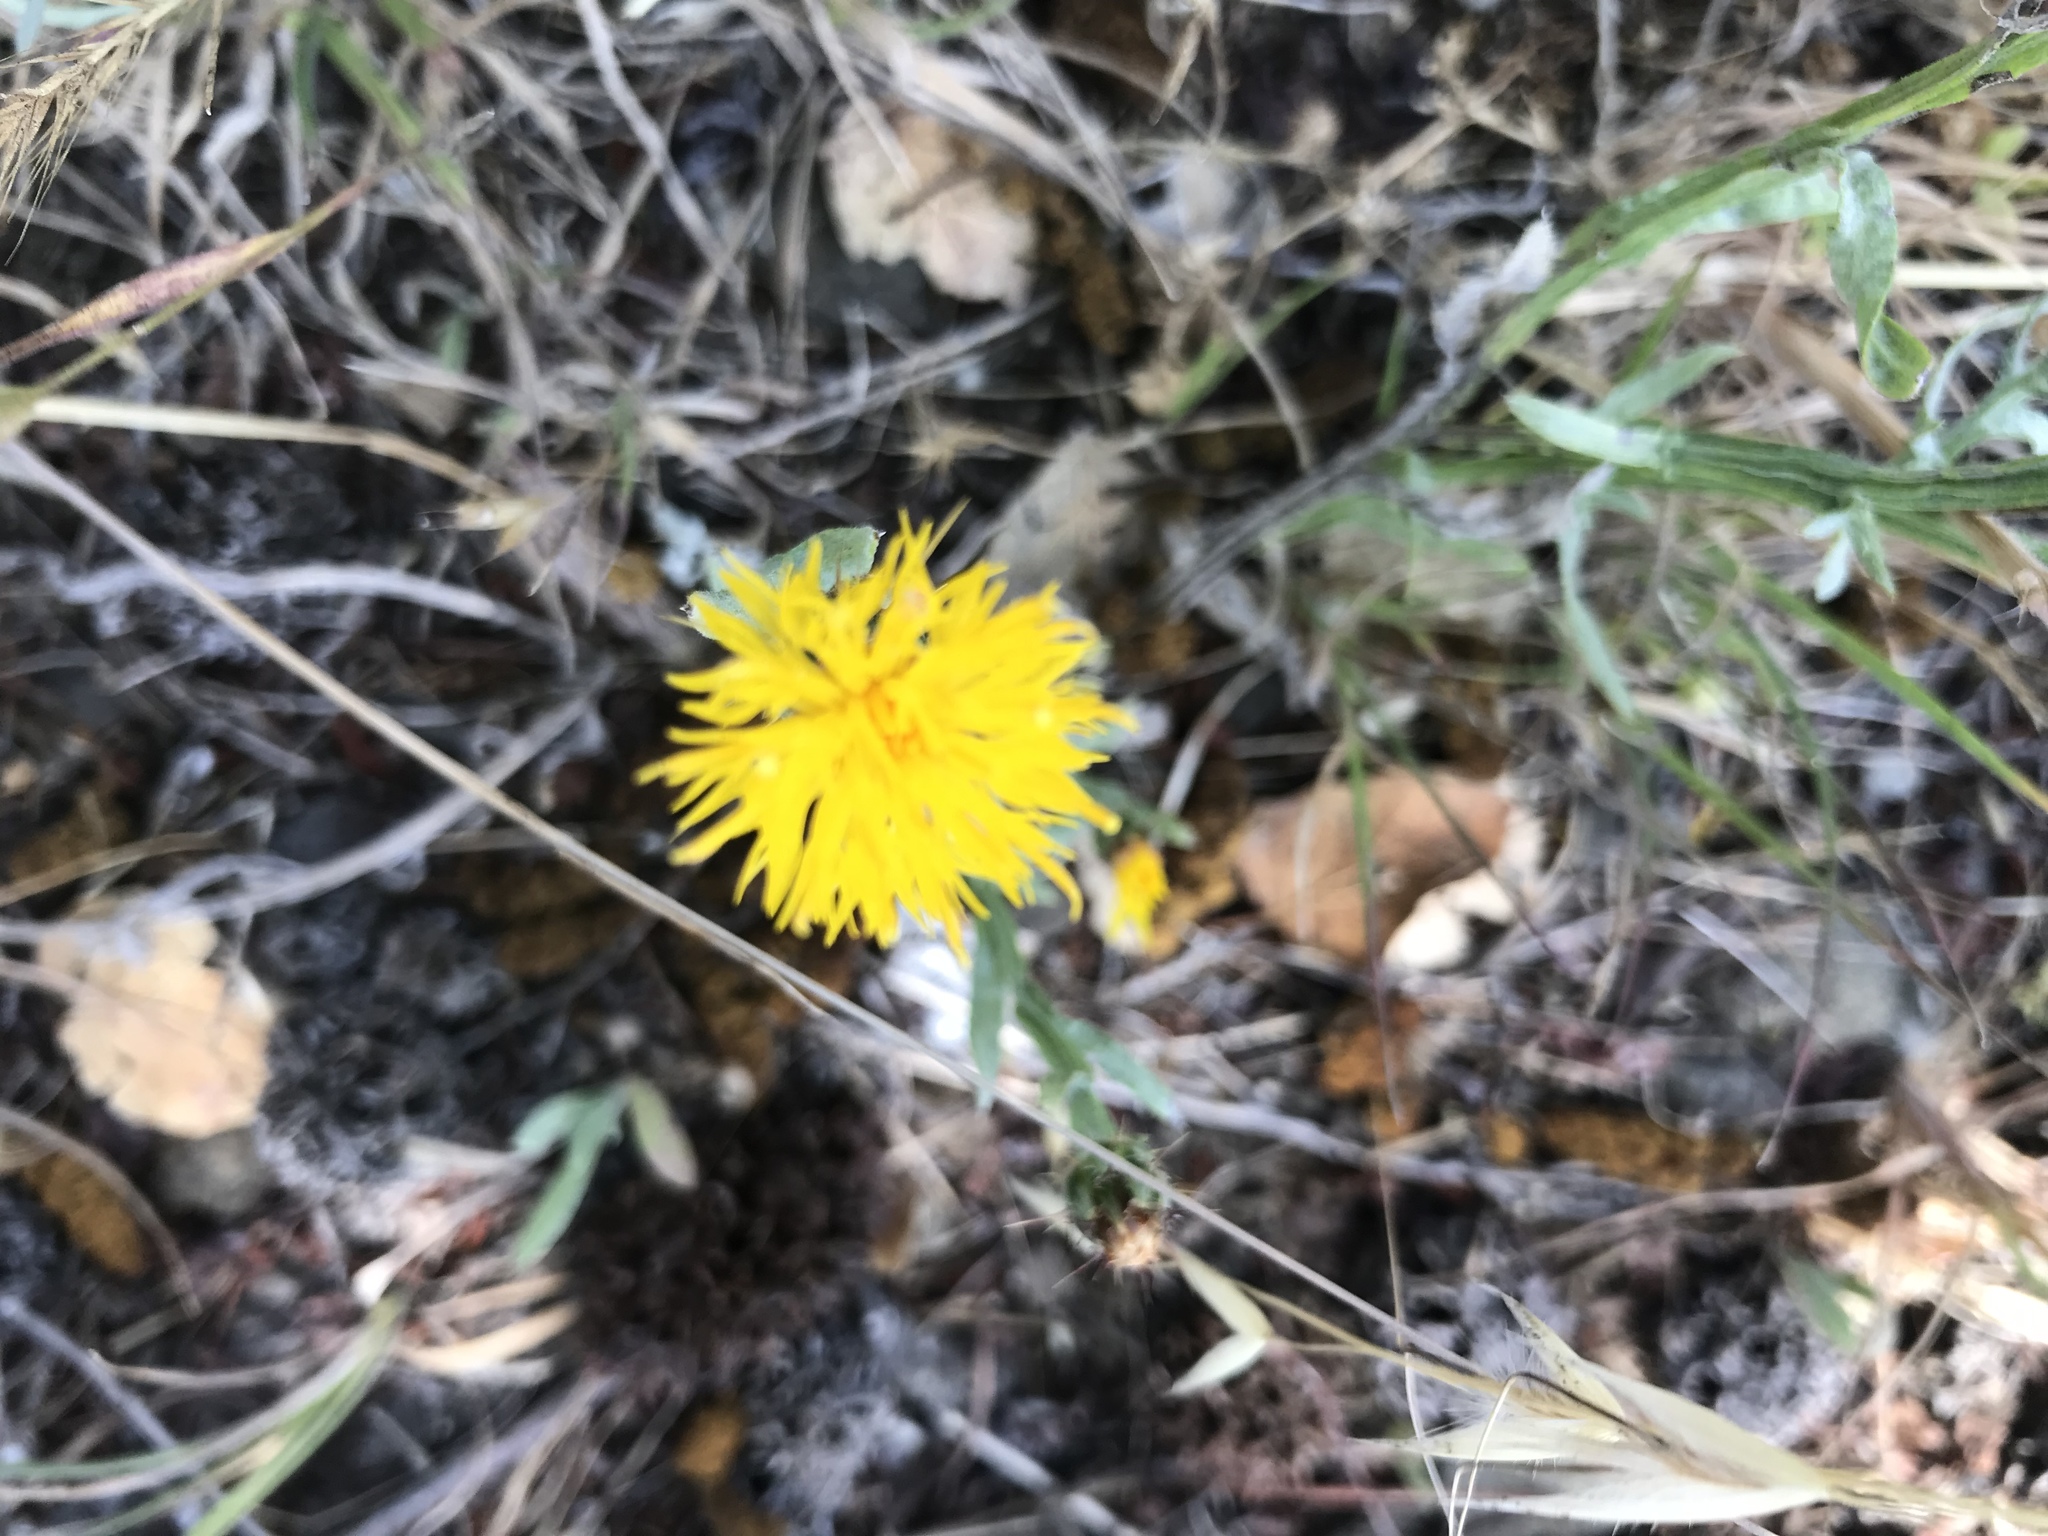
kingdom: Plantae
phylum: Tracheophyta
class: Magnoliopsida
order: Asterales
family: Asteraceae
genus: Centaurea
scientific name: Centaurea solstitialis
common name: Yellow star-thistle
